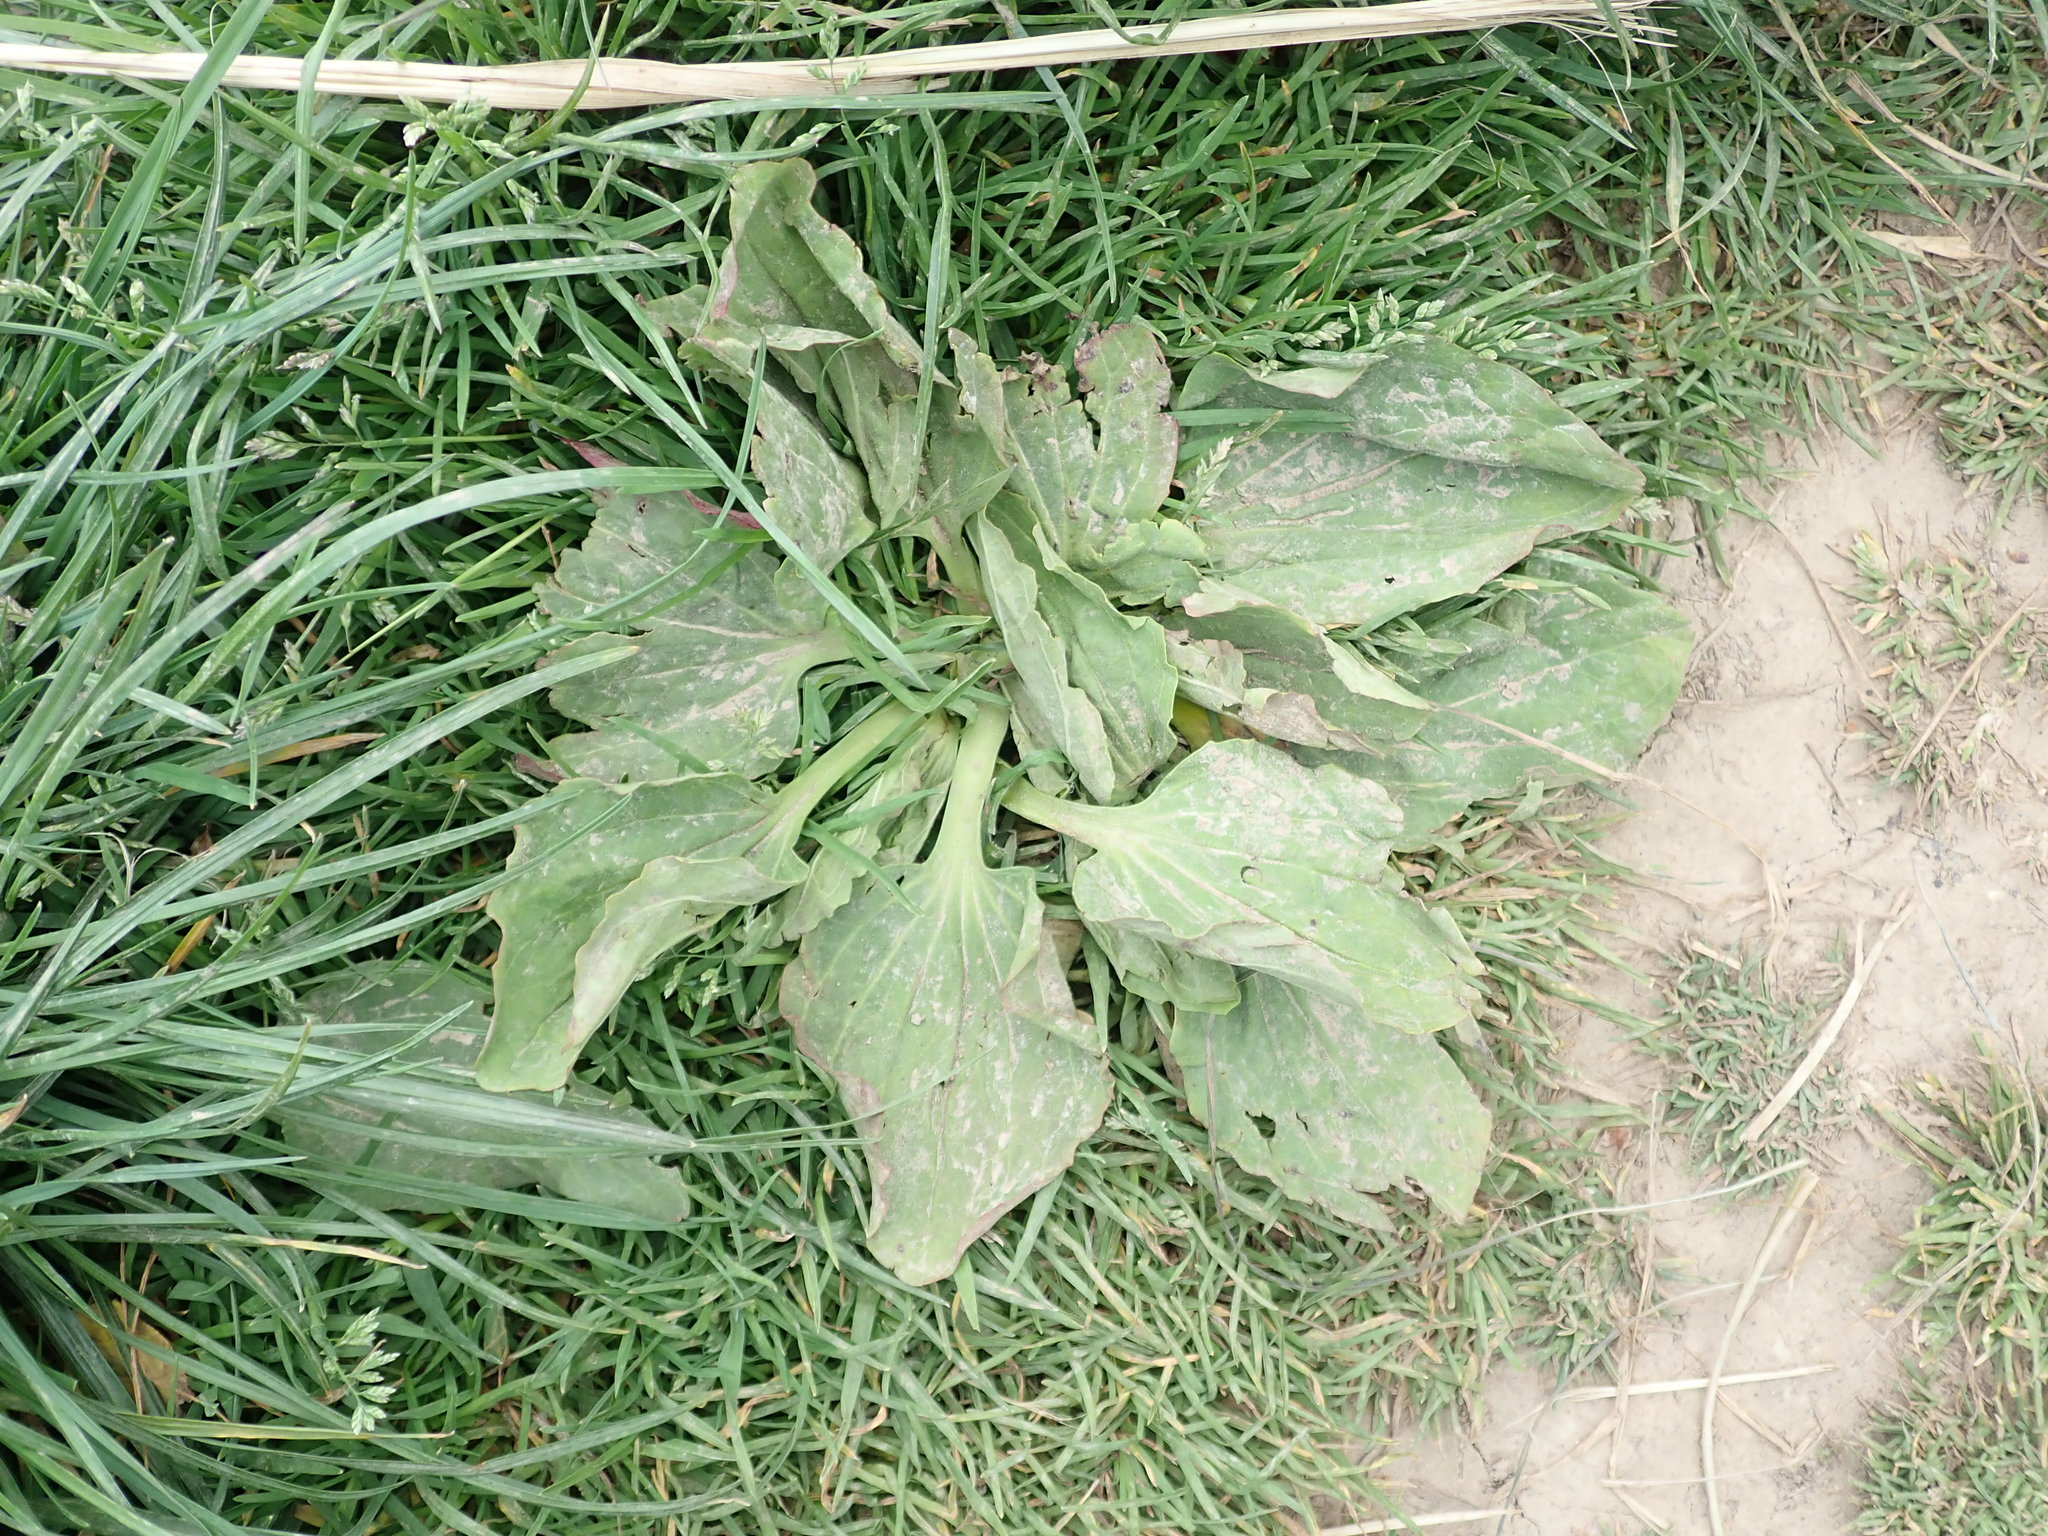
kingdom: Plantae
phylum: Tracheophyta
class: Magnoliopsida
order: Lamiales
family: Plantaginaceae
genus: Plantago
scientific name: Plantago major
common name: Common plantain
